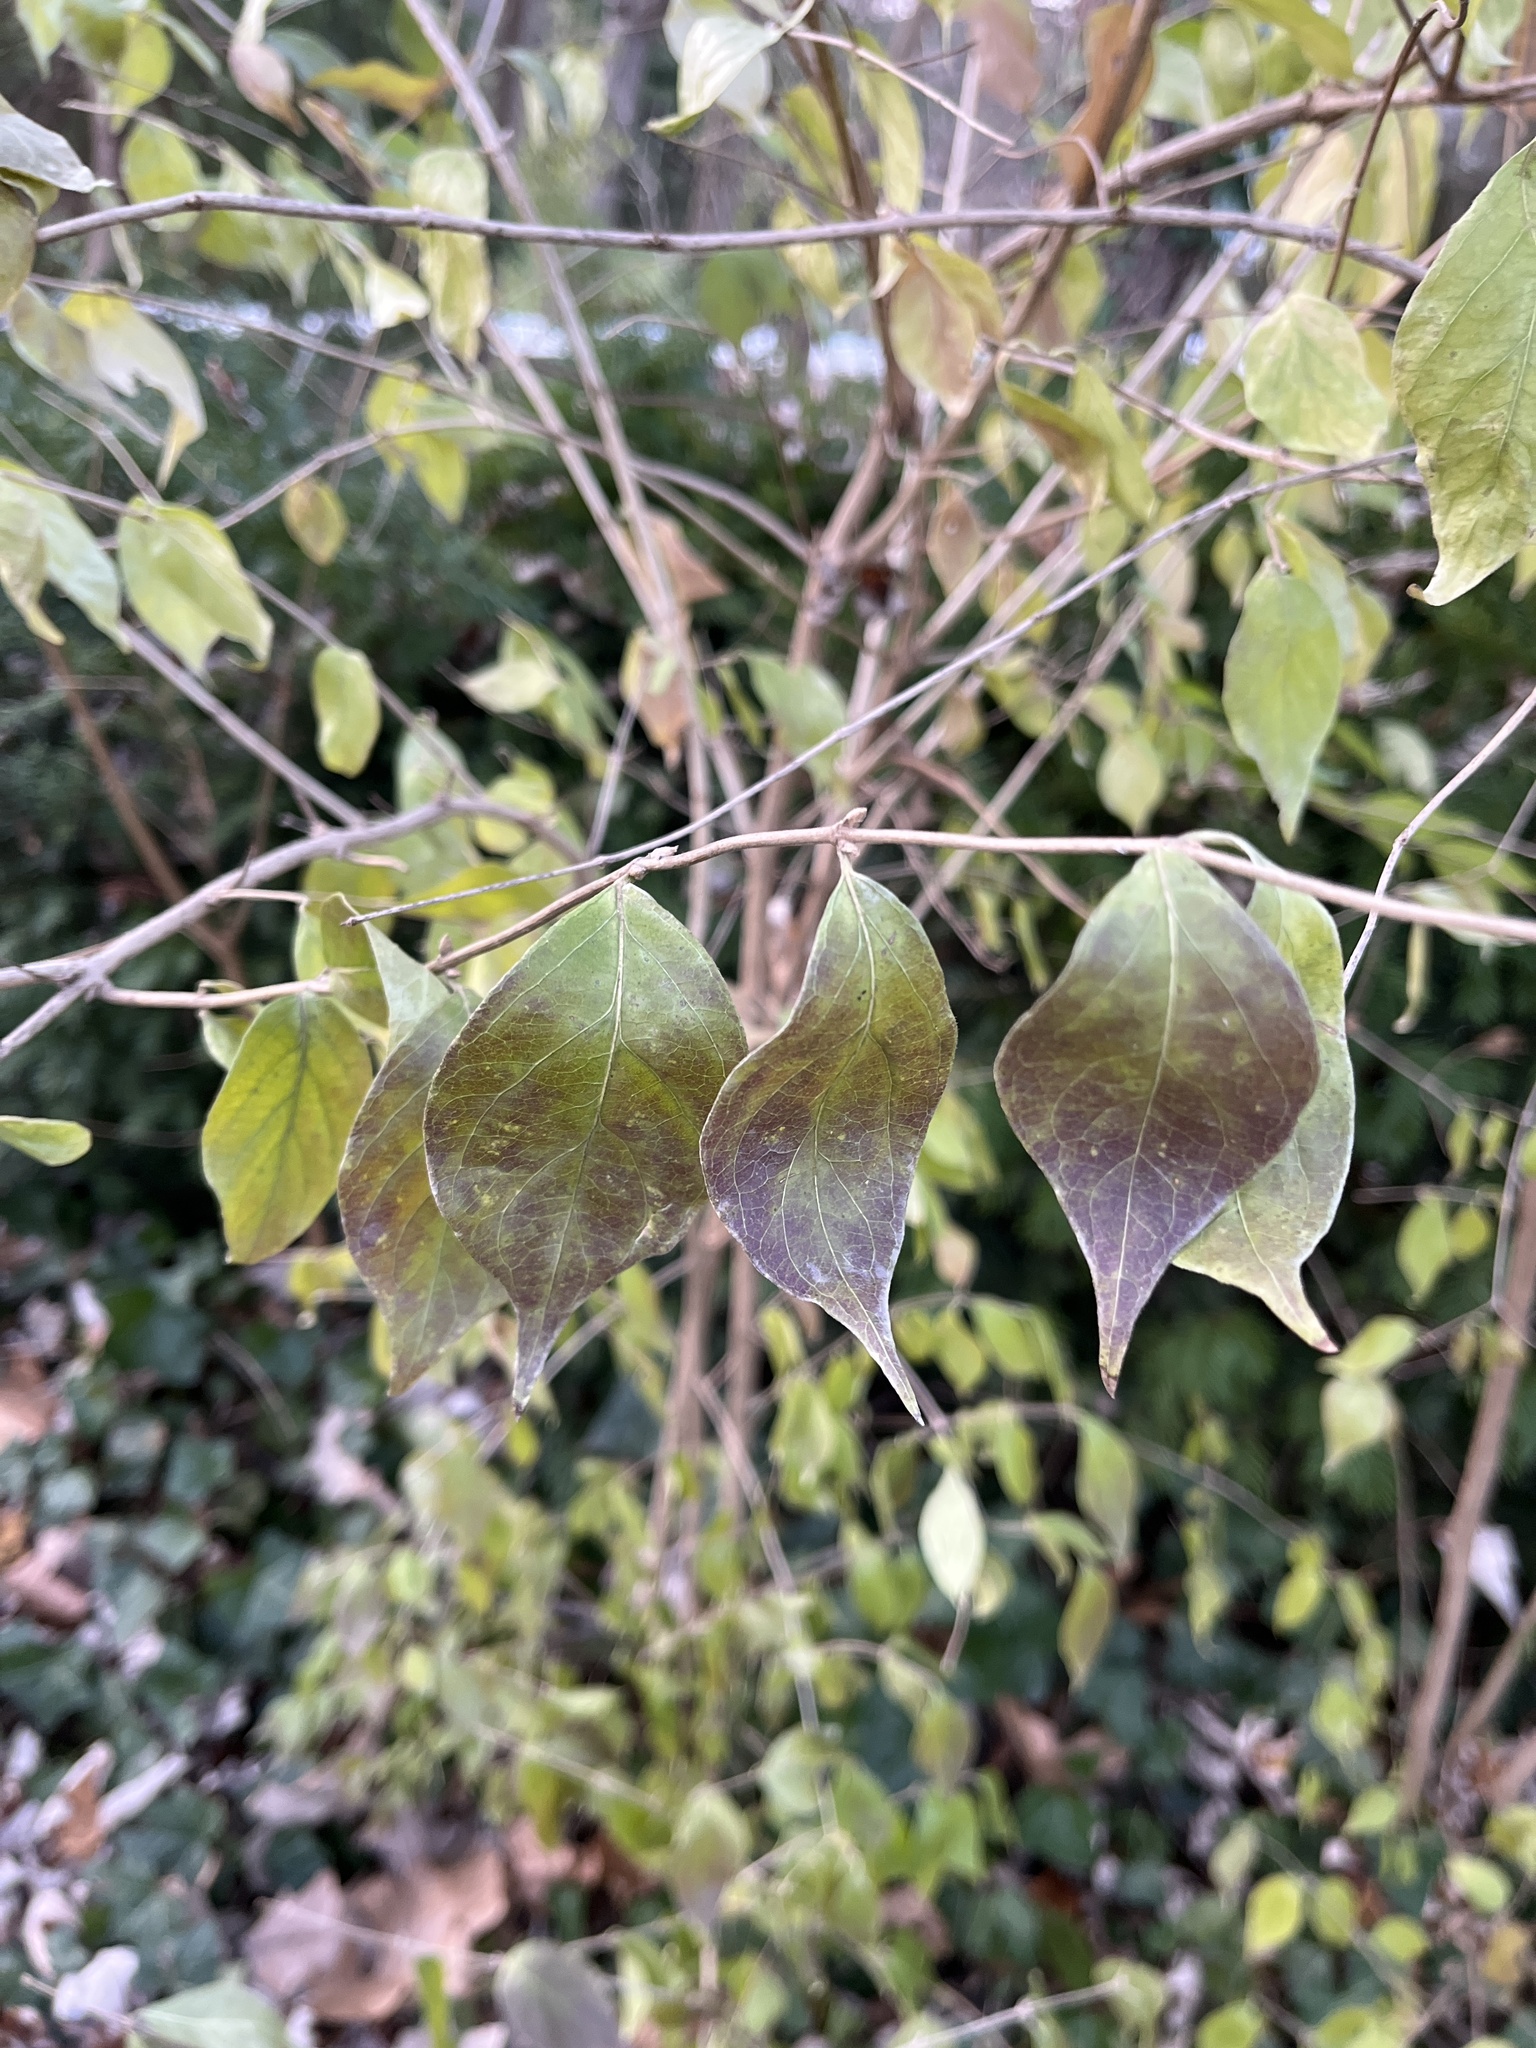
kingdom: Plantae
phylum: Tracheophyta
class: Magnoliopsida
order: Dipsacales
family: Caprifoliaceae
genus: Lonicera
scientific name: Lonicera maackii
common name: Amur honeysuckle
